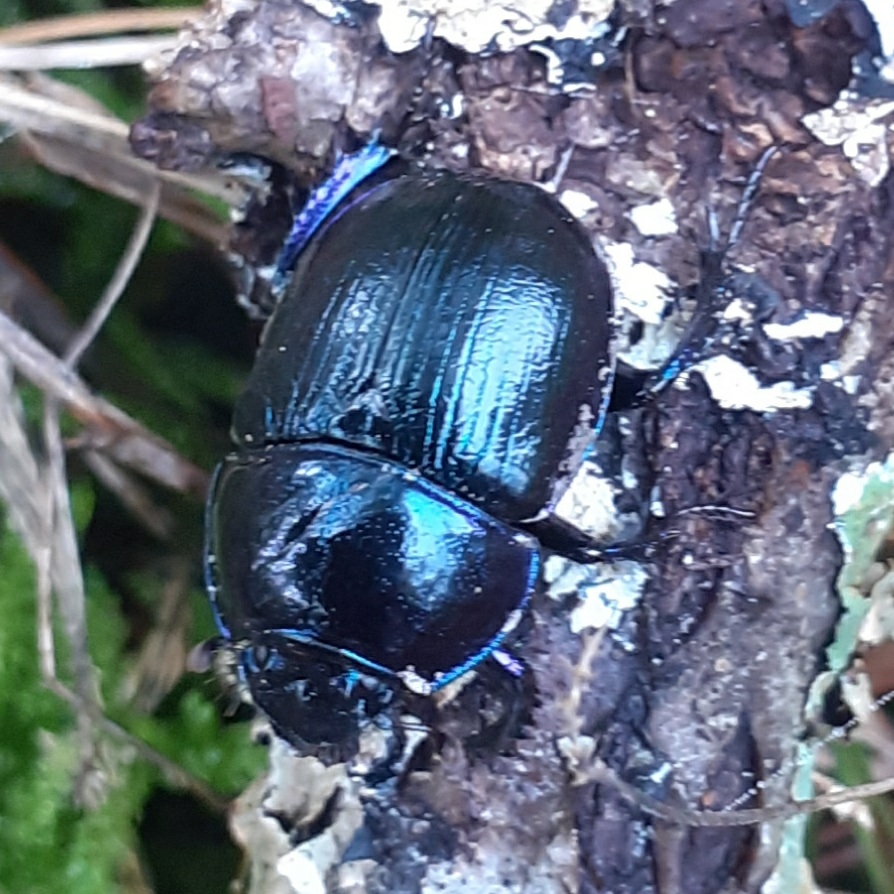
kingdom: Animalia
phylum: Arthropoda
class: Insecta
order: Coleoptera
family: Geotrupidae
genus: Anoplotrupes
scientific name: Anoplotrupes stercorosus
